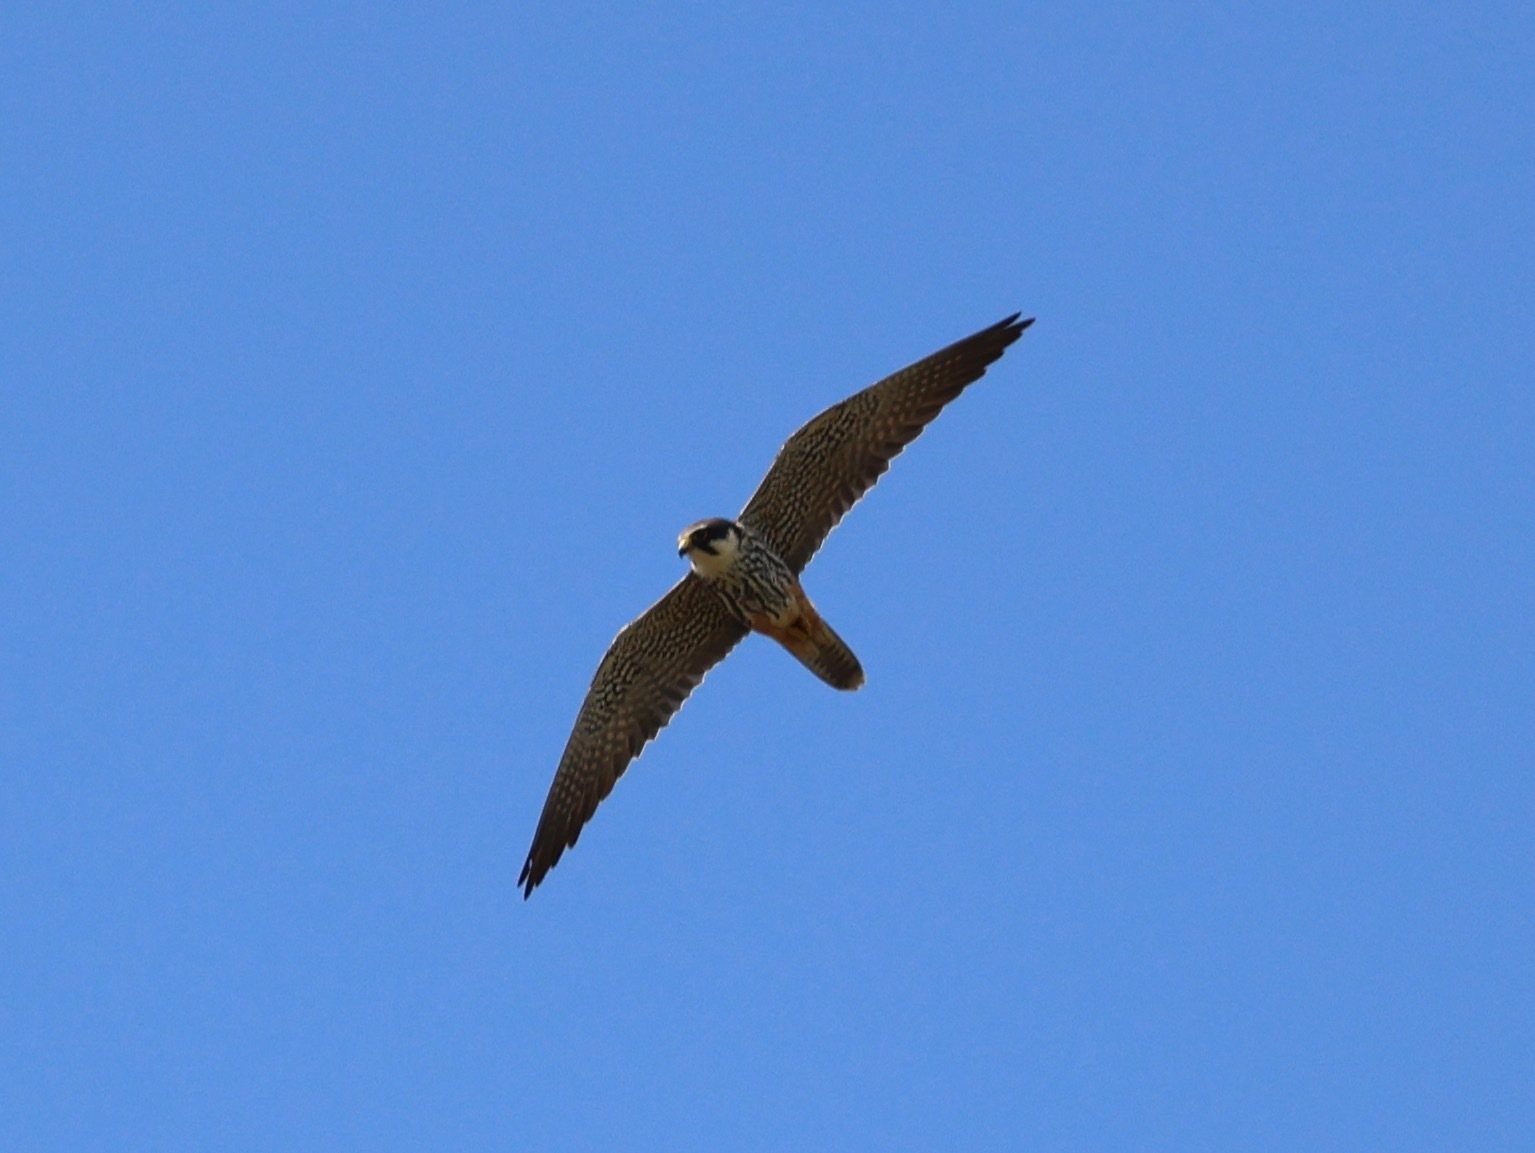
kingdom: Animalia
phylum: Chordata
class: Aves
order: Falconiformes
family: Falconidae
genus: Falco
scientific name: Falco subbuteo
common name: Eurasian hobby
